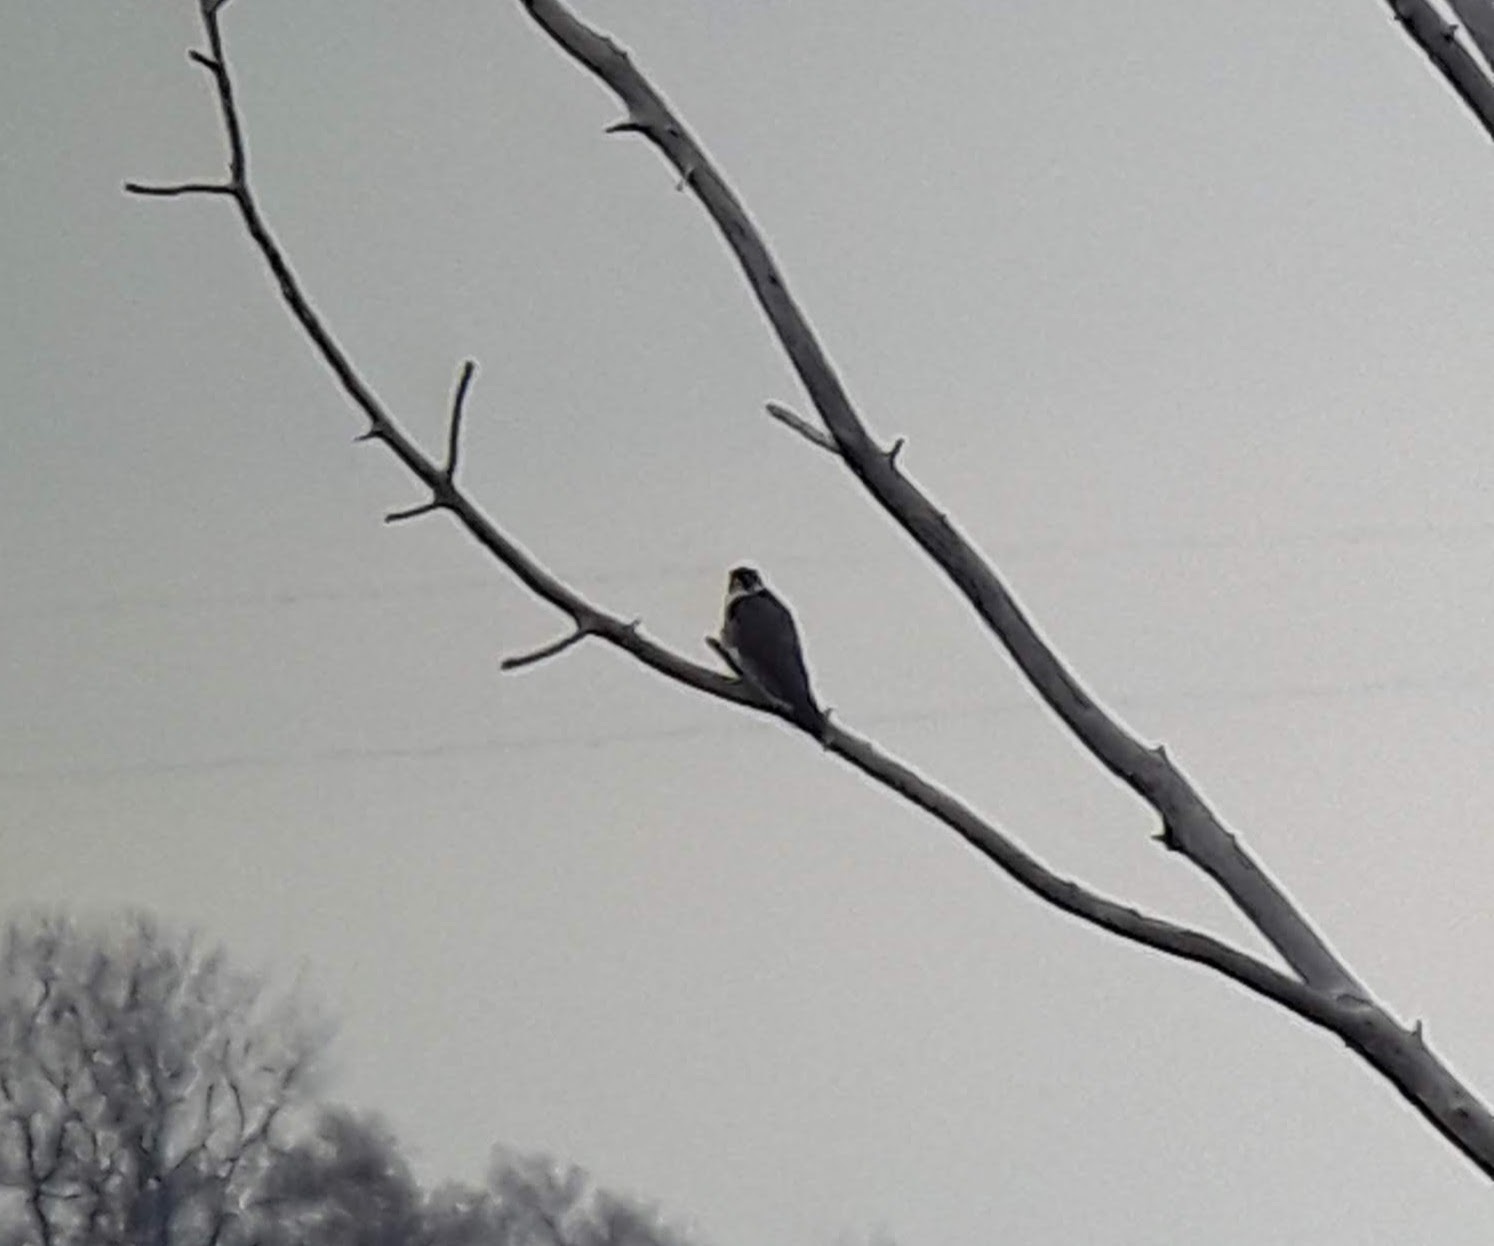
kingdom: Animalia
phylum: Chordata
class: Aves
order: Falconiformes
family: Falconidae
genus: Falco
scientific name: Falco peregrinus
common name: Peregrine falcon
